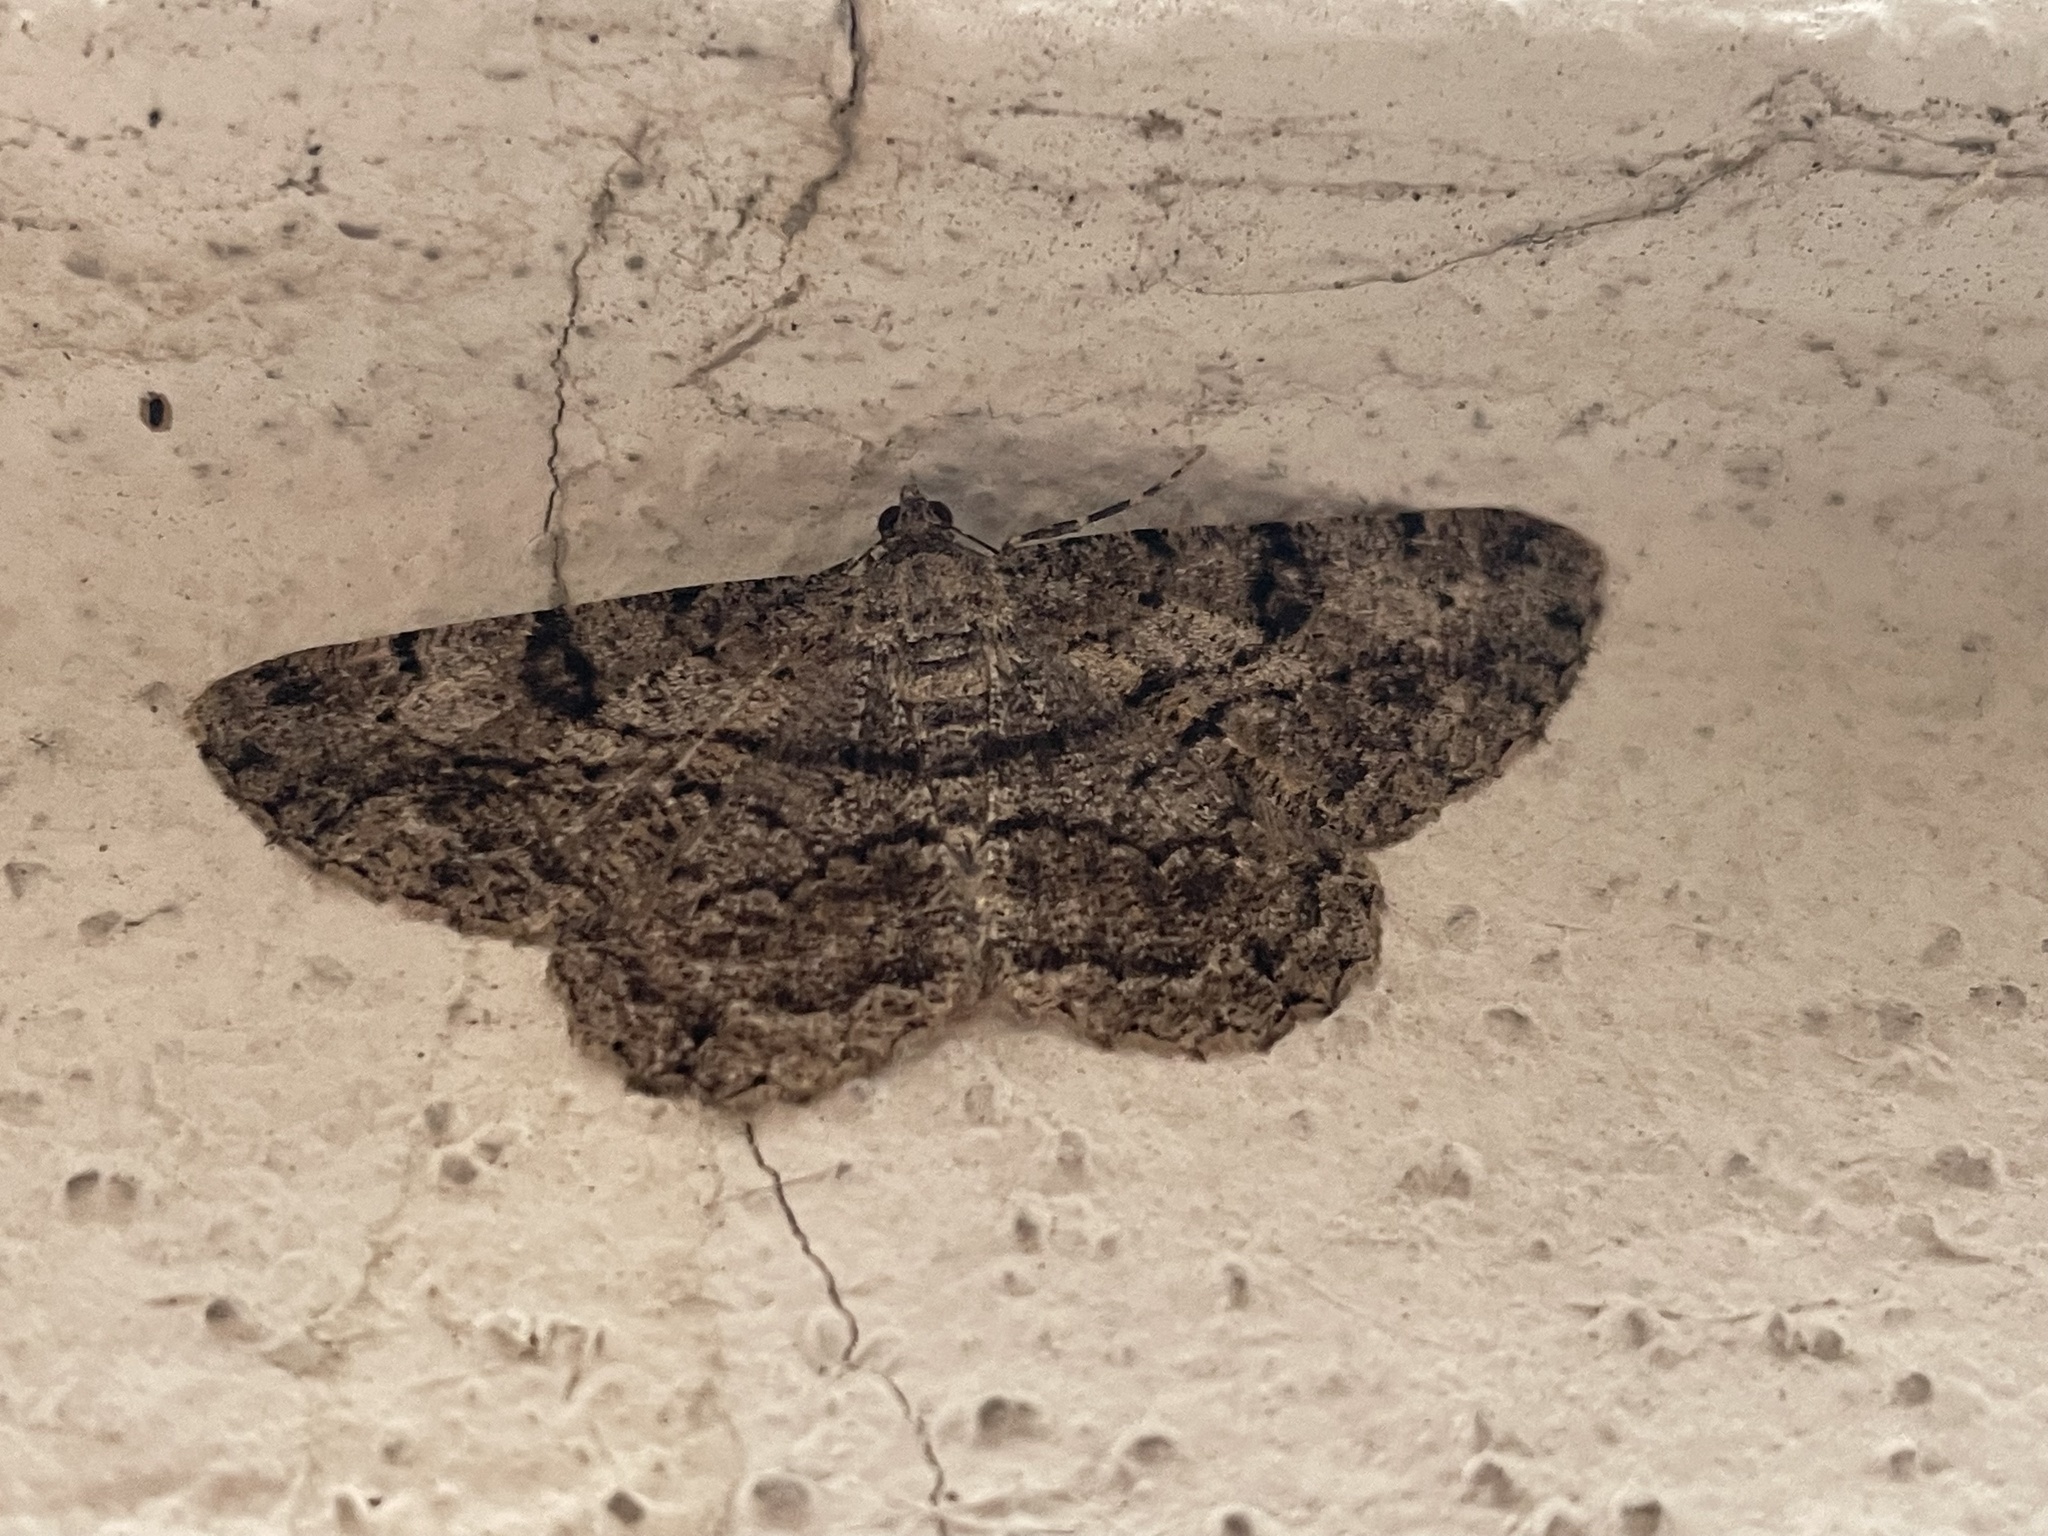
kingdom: Animalia
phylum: Arthropoda
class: Insecta
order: Lepidoptera
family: Geometridae
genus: Peribatodes
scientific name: Peribatodes rhomboidaria
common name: Willow beauty
